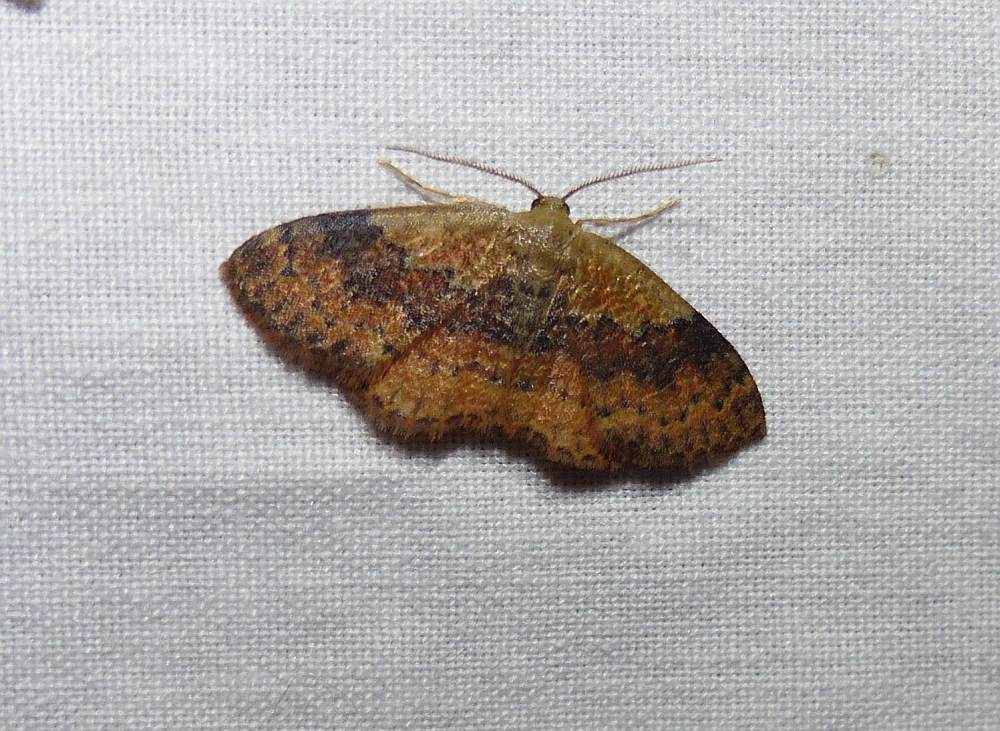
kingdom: Animalia
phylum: Arthropoda
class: Insecta
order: Lepidoptera
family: Geometridae
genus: Leptostales
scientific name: Leptostales ferruminaria
